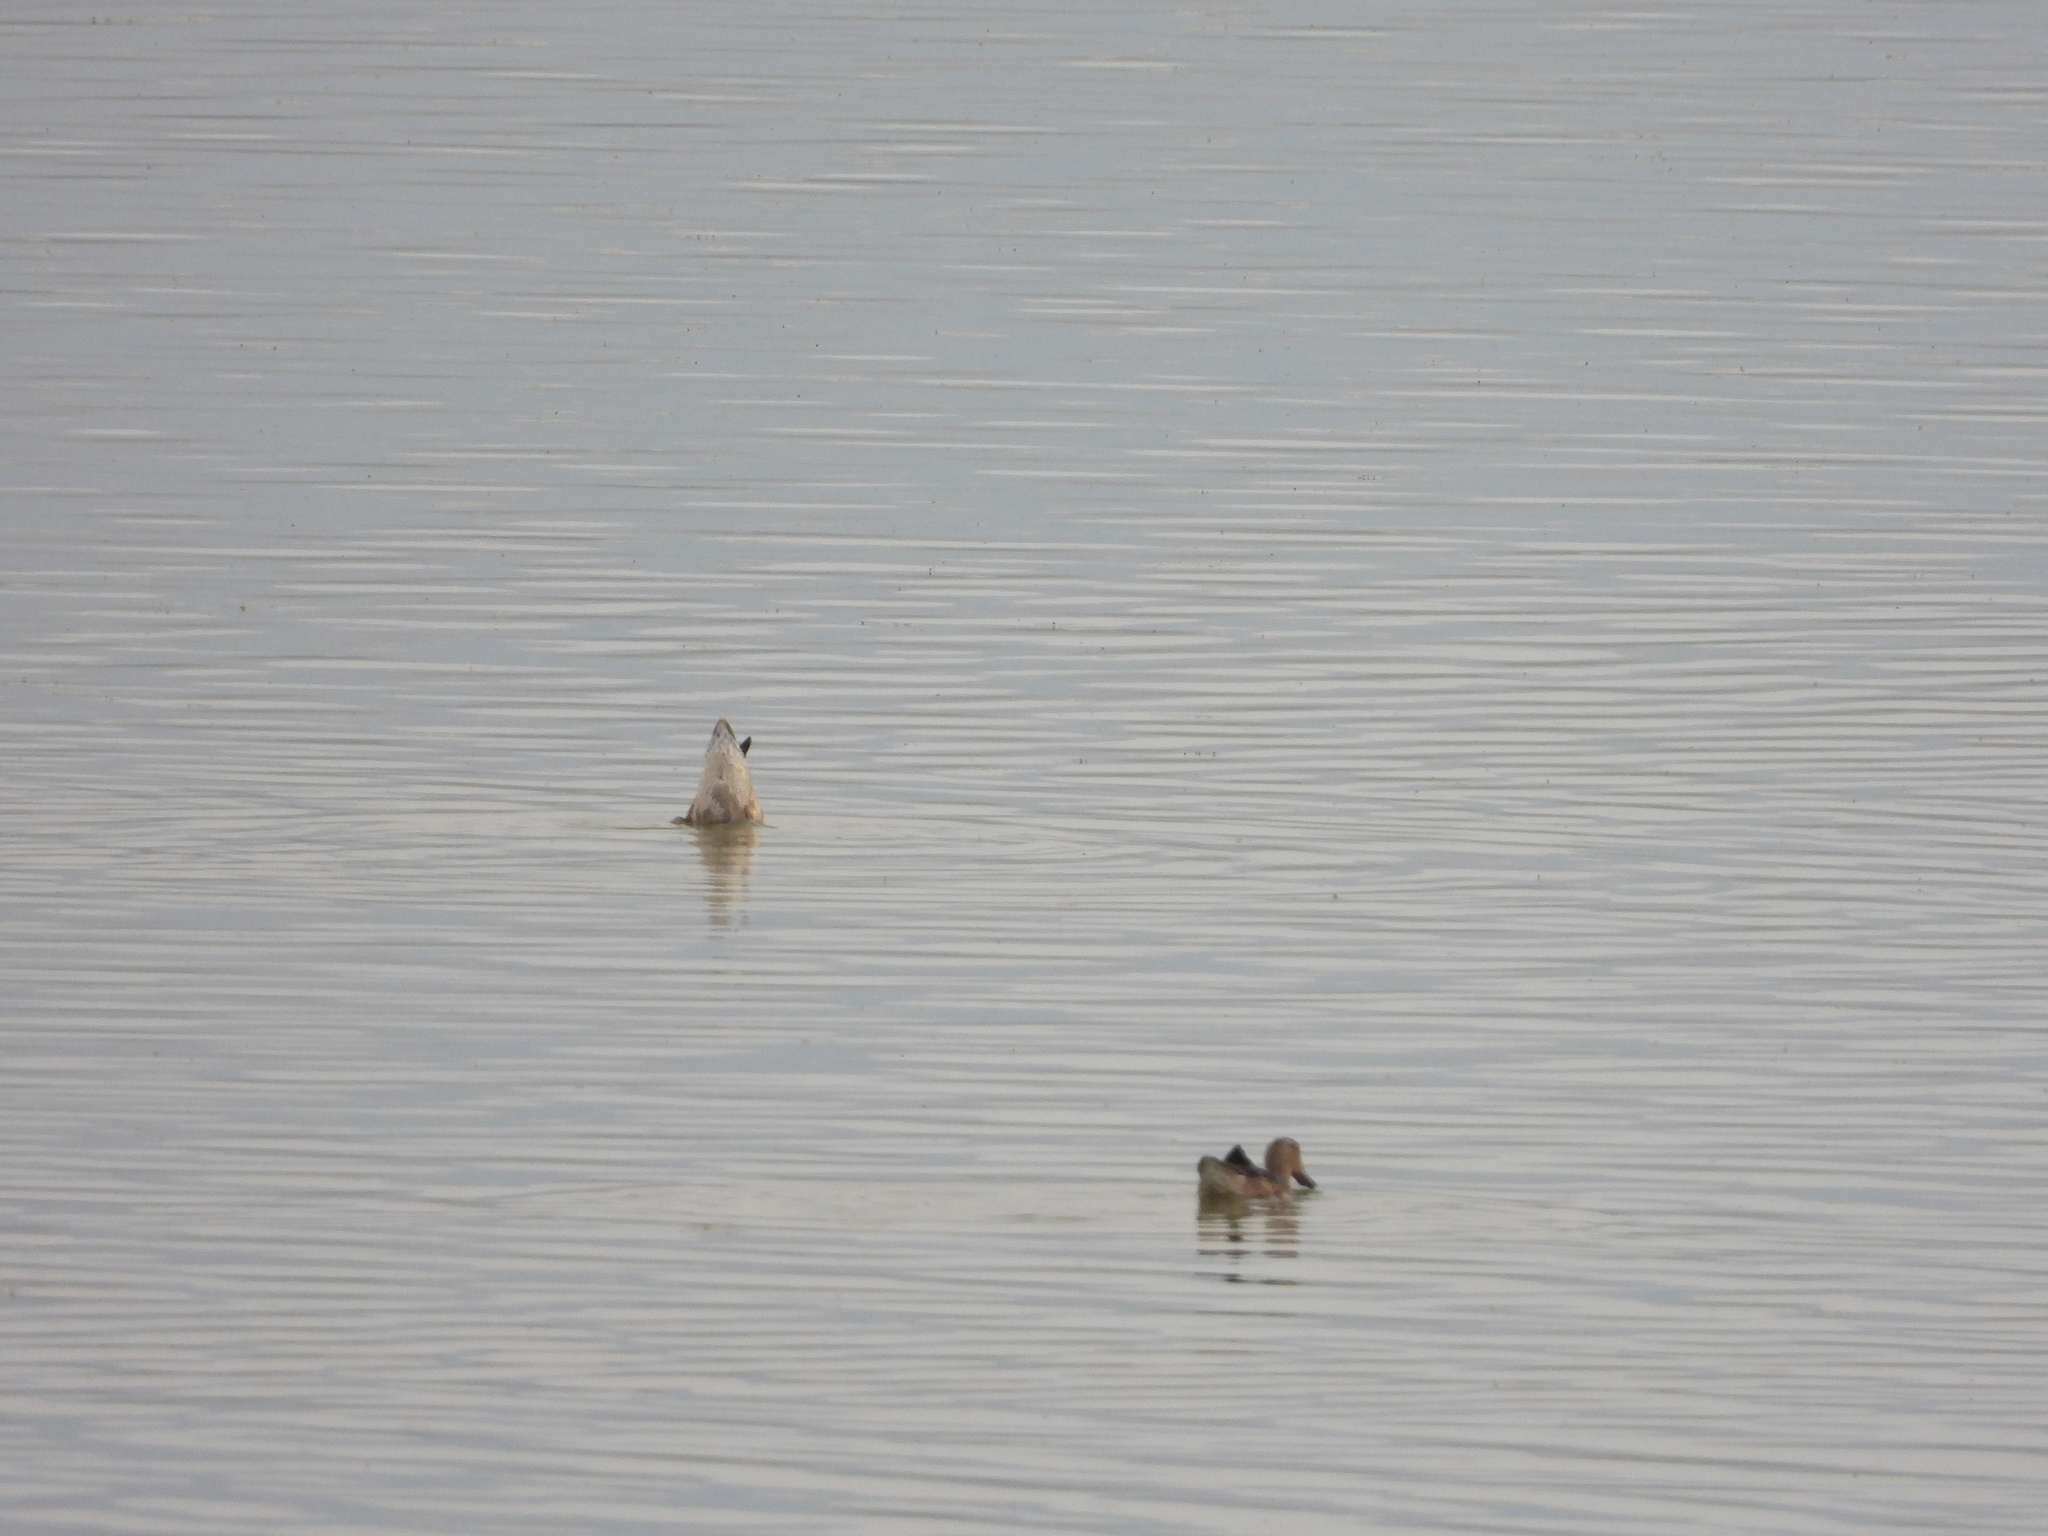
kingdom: Animalia
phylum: Chordata
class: Aves
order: Anseriformes
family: Anatidae
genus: Spatula
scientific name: Spatula cyanoptera
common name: Cinnamon teal
